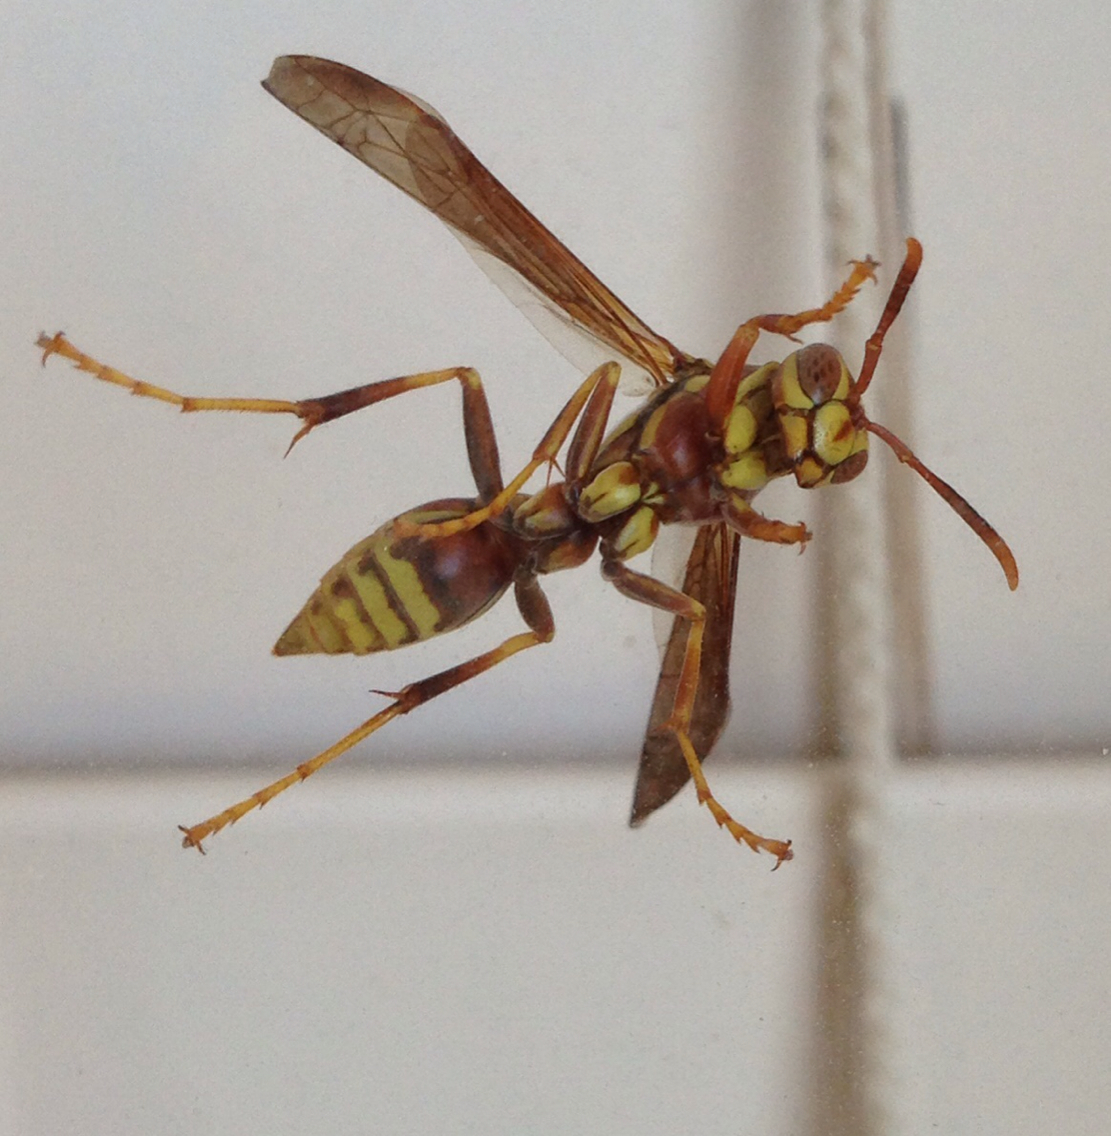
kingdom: Animalia
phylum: Arthropoda
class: Insecta
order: Hymenoptera
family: Eumenidae
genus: Polistes
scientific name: Polistes exclamans
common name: Paper wasp
